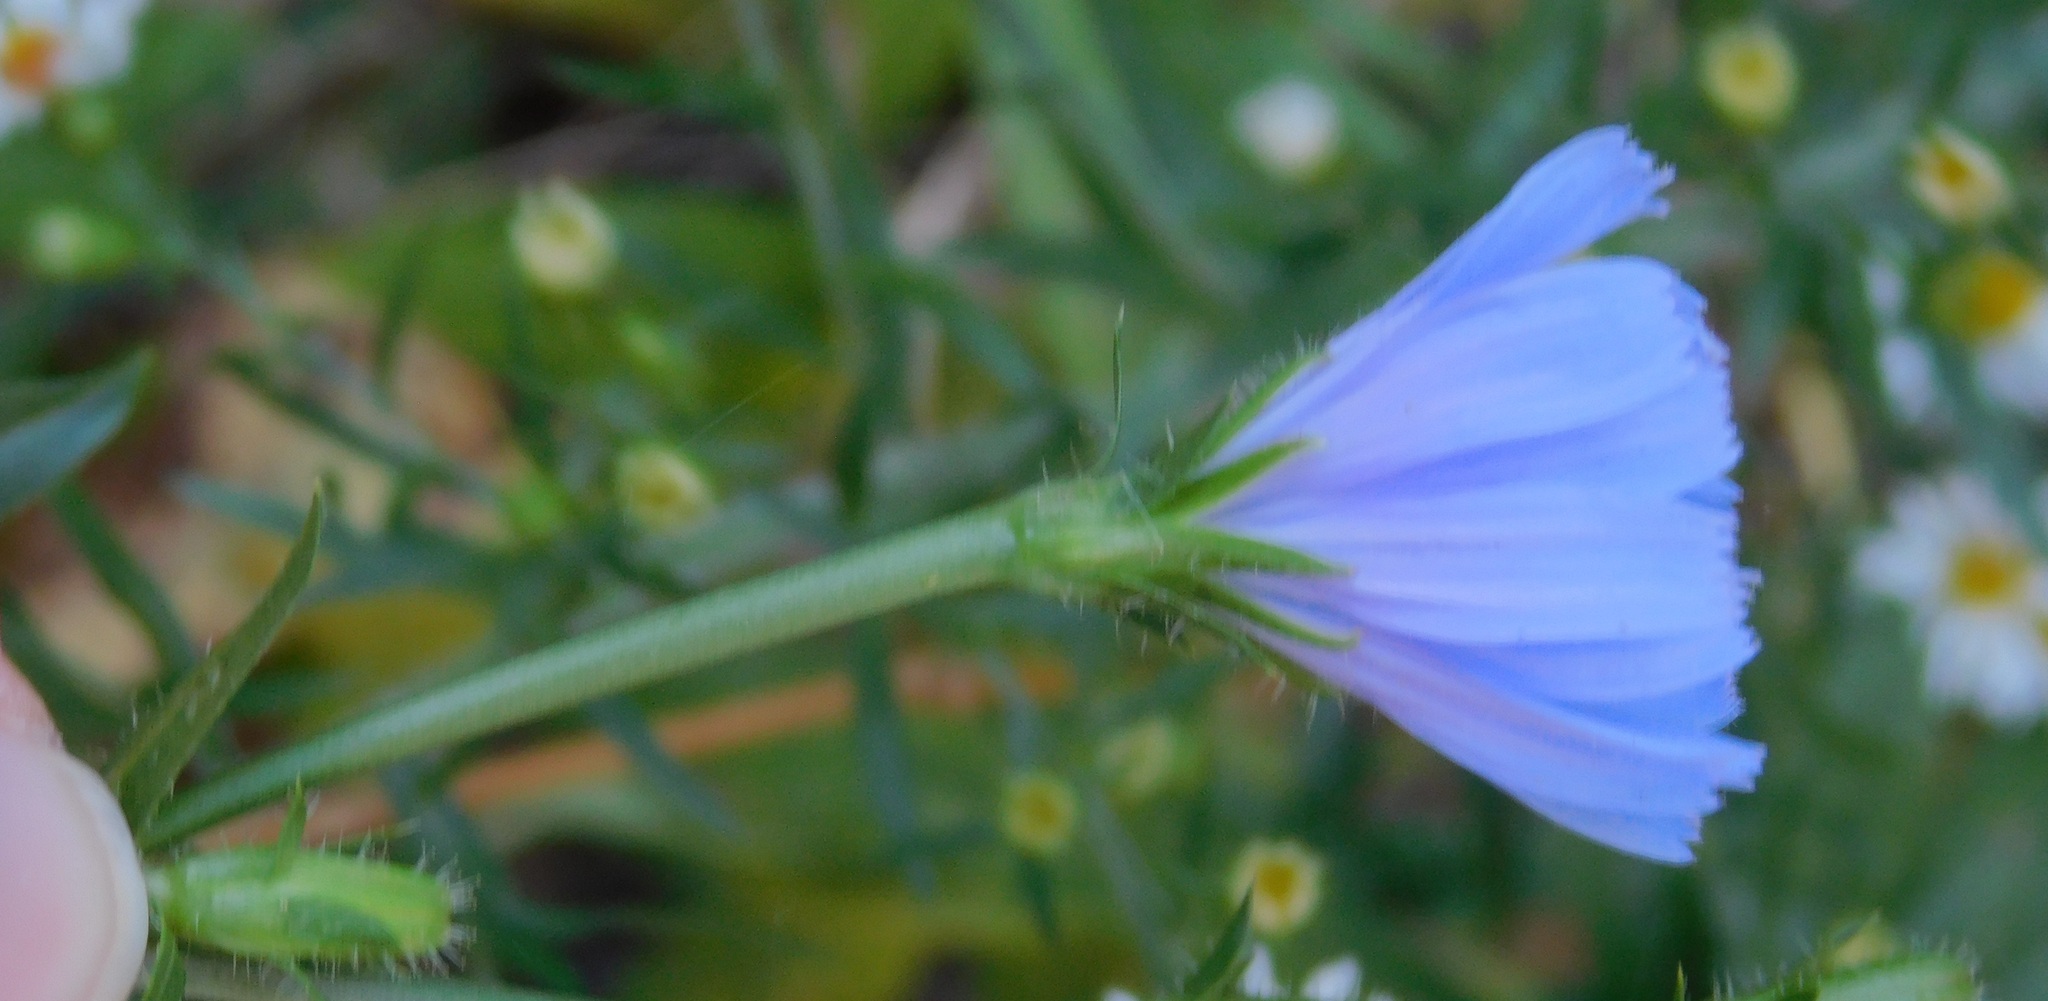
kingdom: Plantae
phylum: Tracheophyta
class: Magnoliopsida
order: Asterales
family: Asteraceae
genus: Cichorium
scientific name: Cichorium intybus
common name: Chicory
